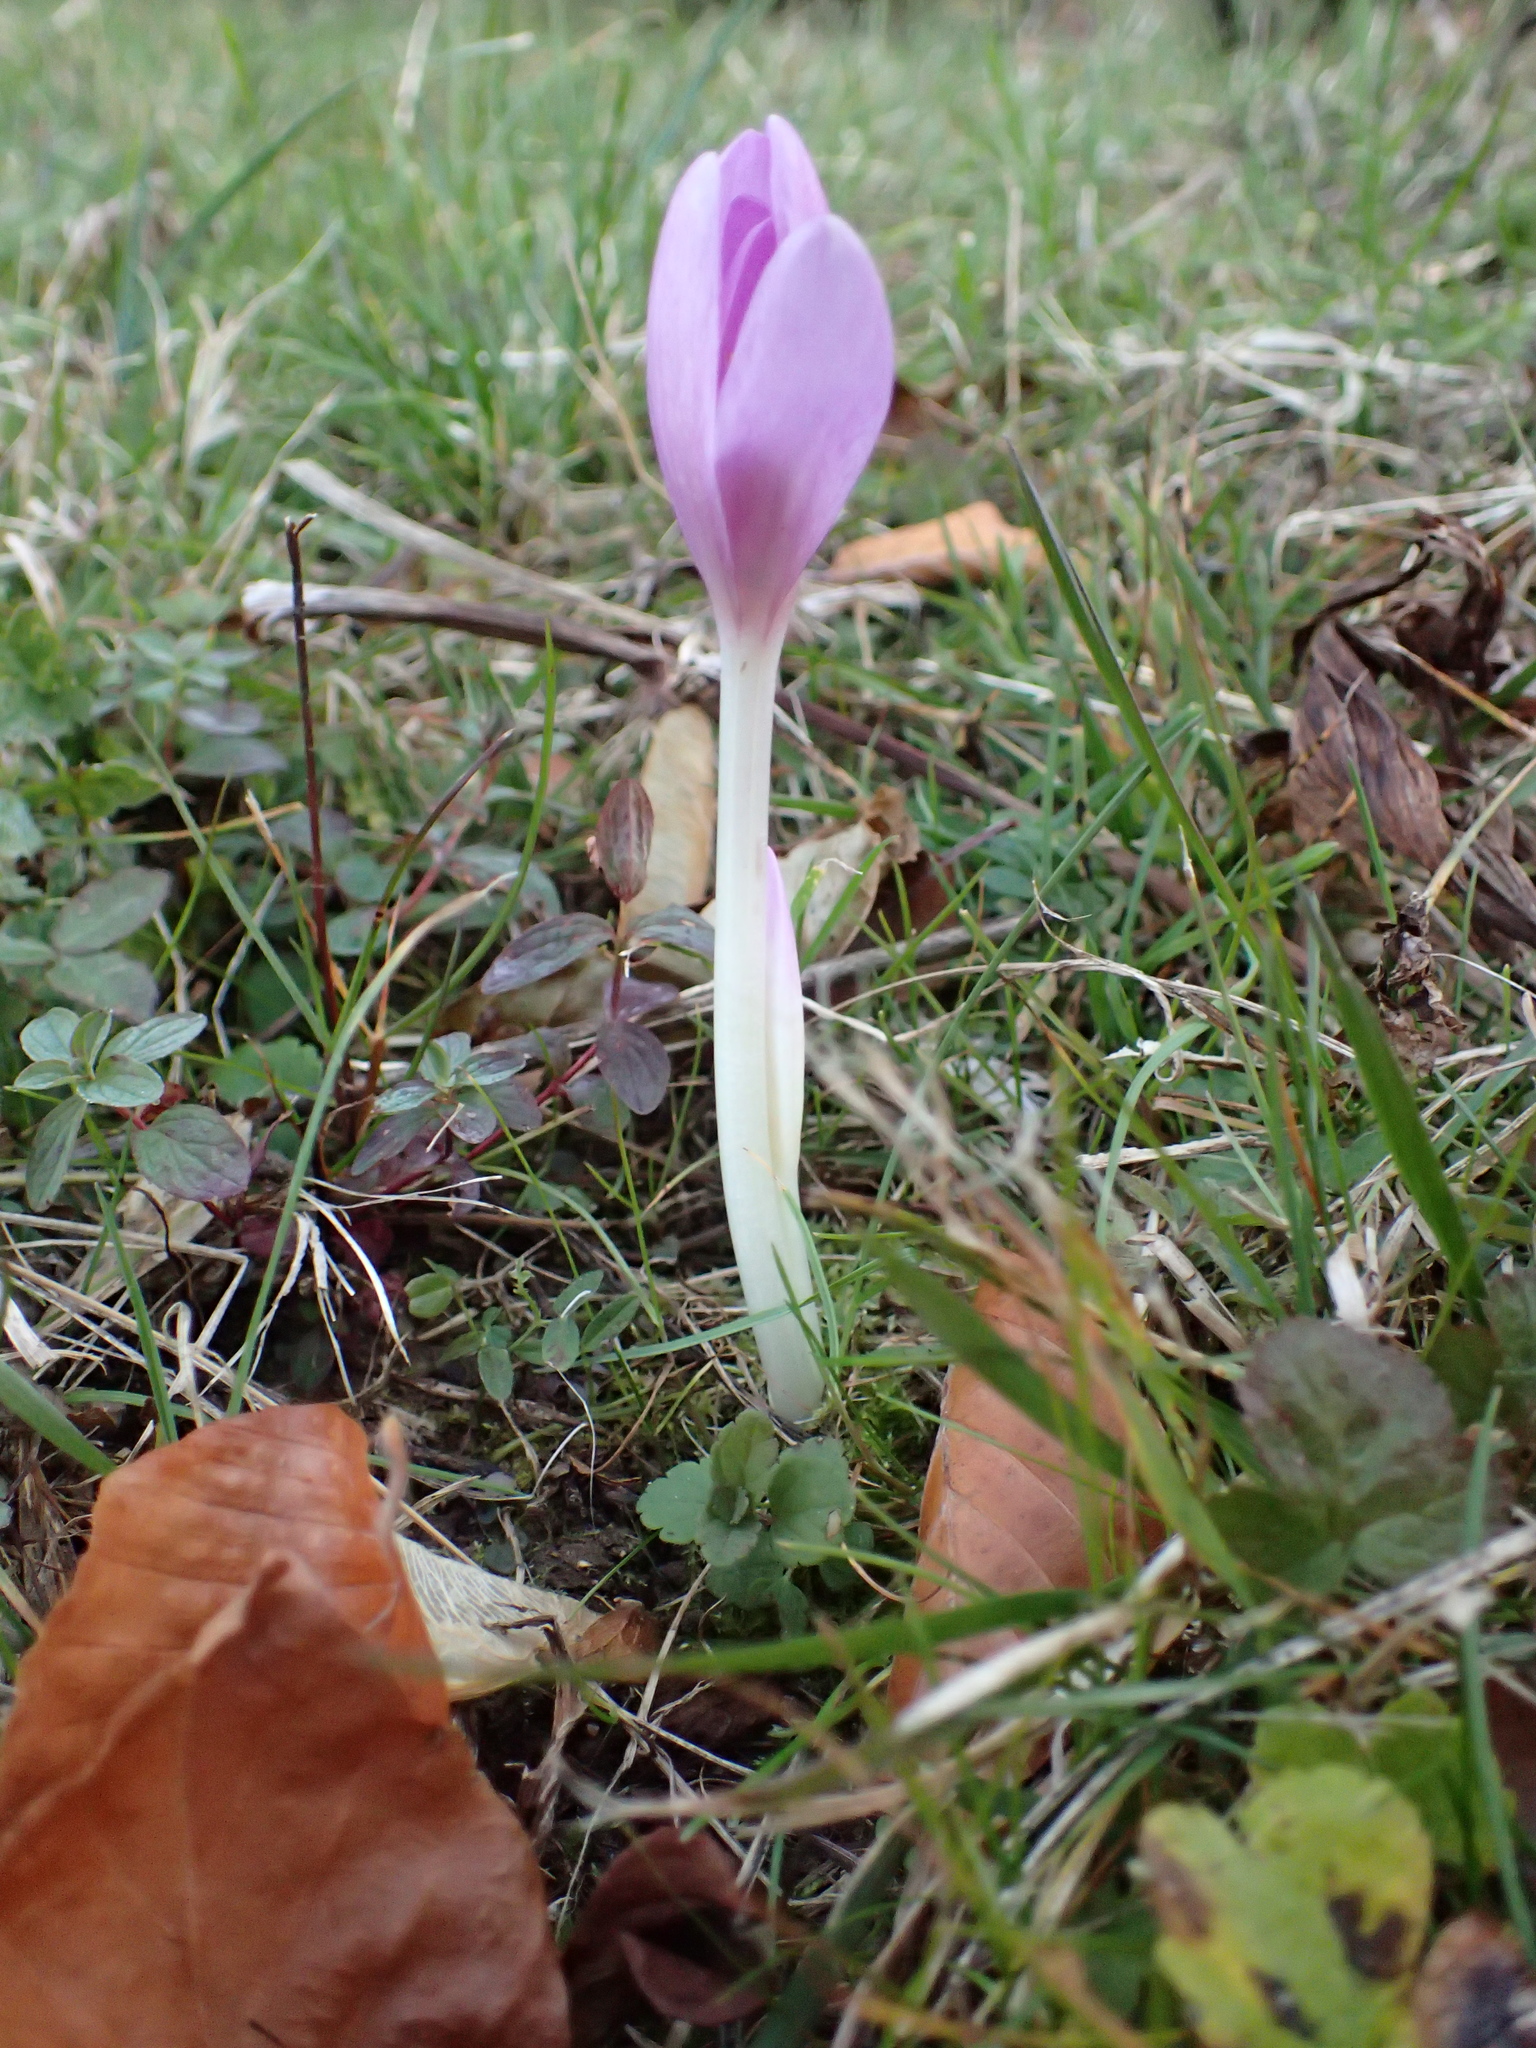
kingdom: Plantae
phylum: Tracheophyta
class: Liliopsida
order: Liliales
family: Colchicaceae
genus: Colchicum
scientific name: Colchicum autumnale
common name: Autumn crocus
